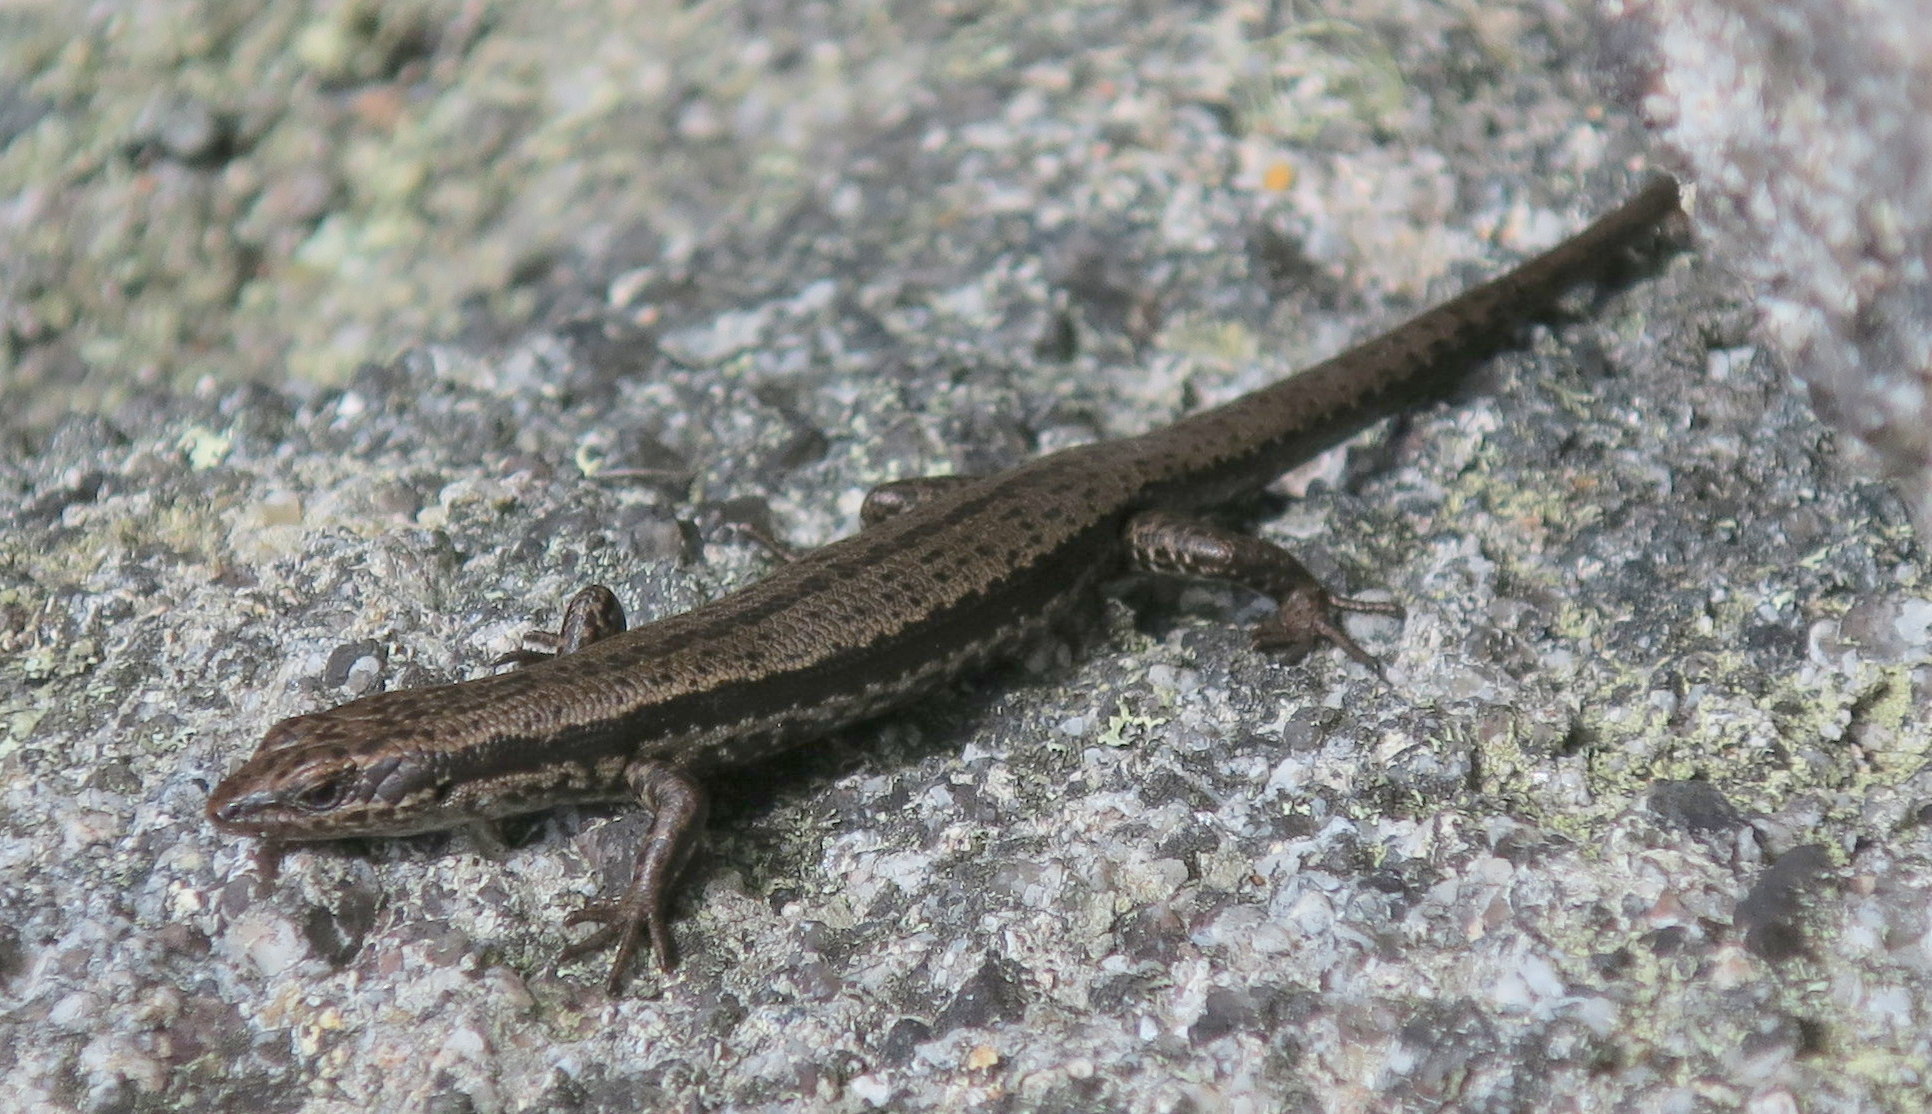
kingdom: Animalia
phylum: Chordata
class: Squamata
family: Scincidae
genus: Carinascincus
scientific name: Carinascincus pretiosus
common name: Agile cool-skink
